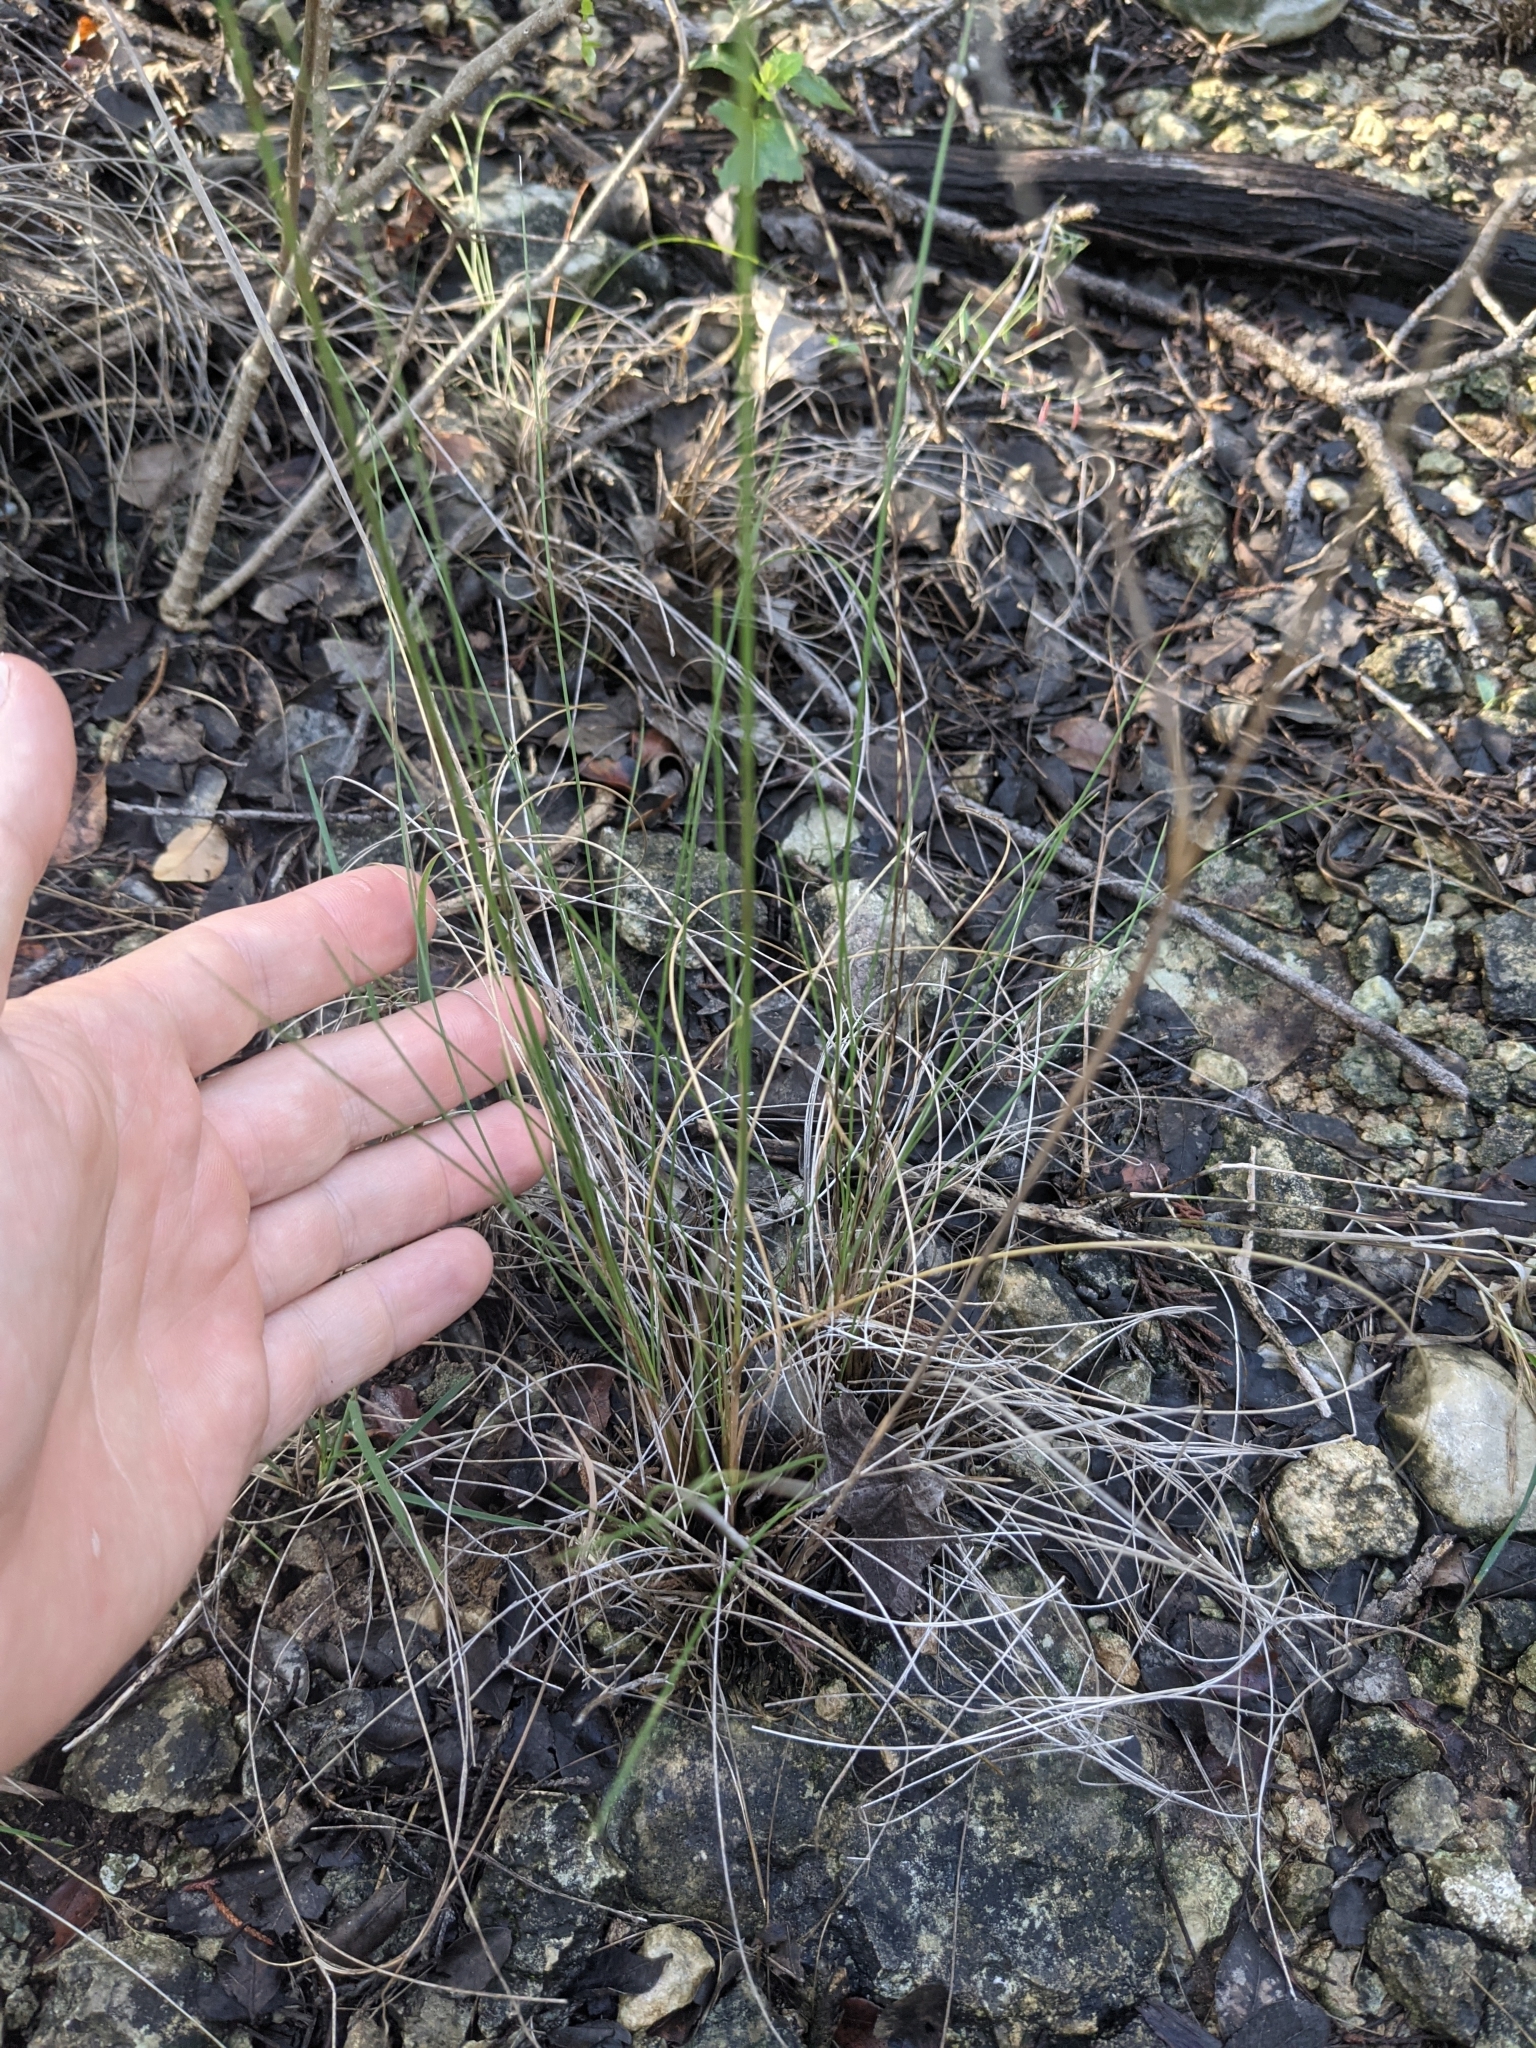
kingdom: Plantae
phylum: Tracheophyta
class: Liliopsida
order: Poales
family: Poaceae
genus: Muhlenbergia
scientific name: Muhlenbergia reverchonii
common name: Seep muhly
